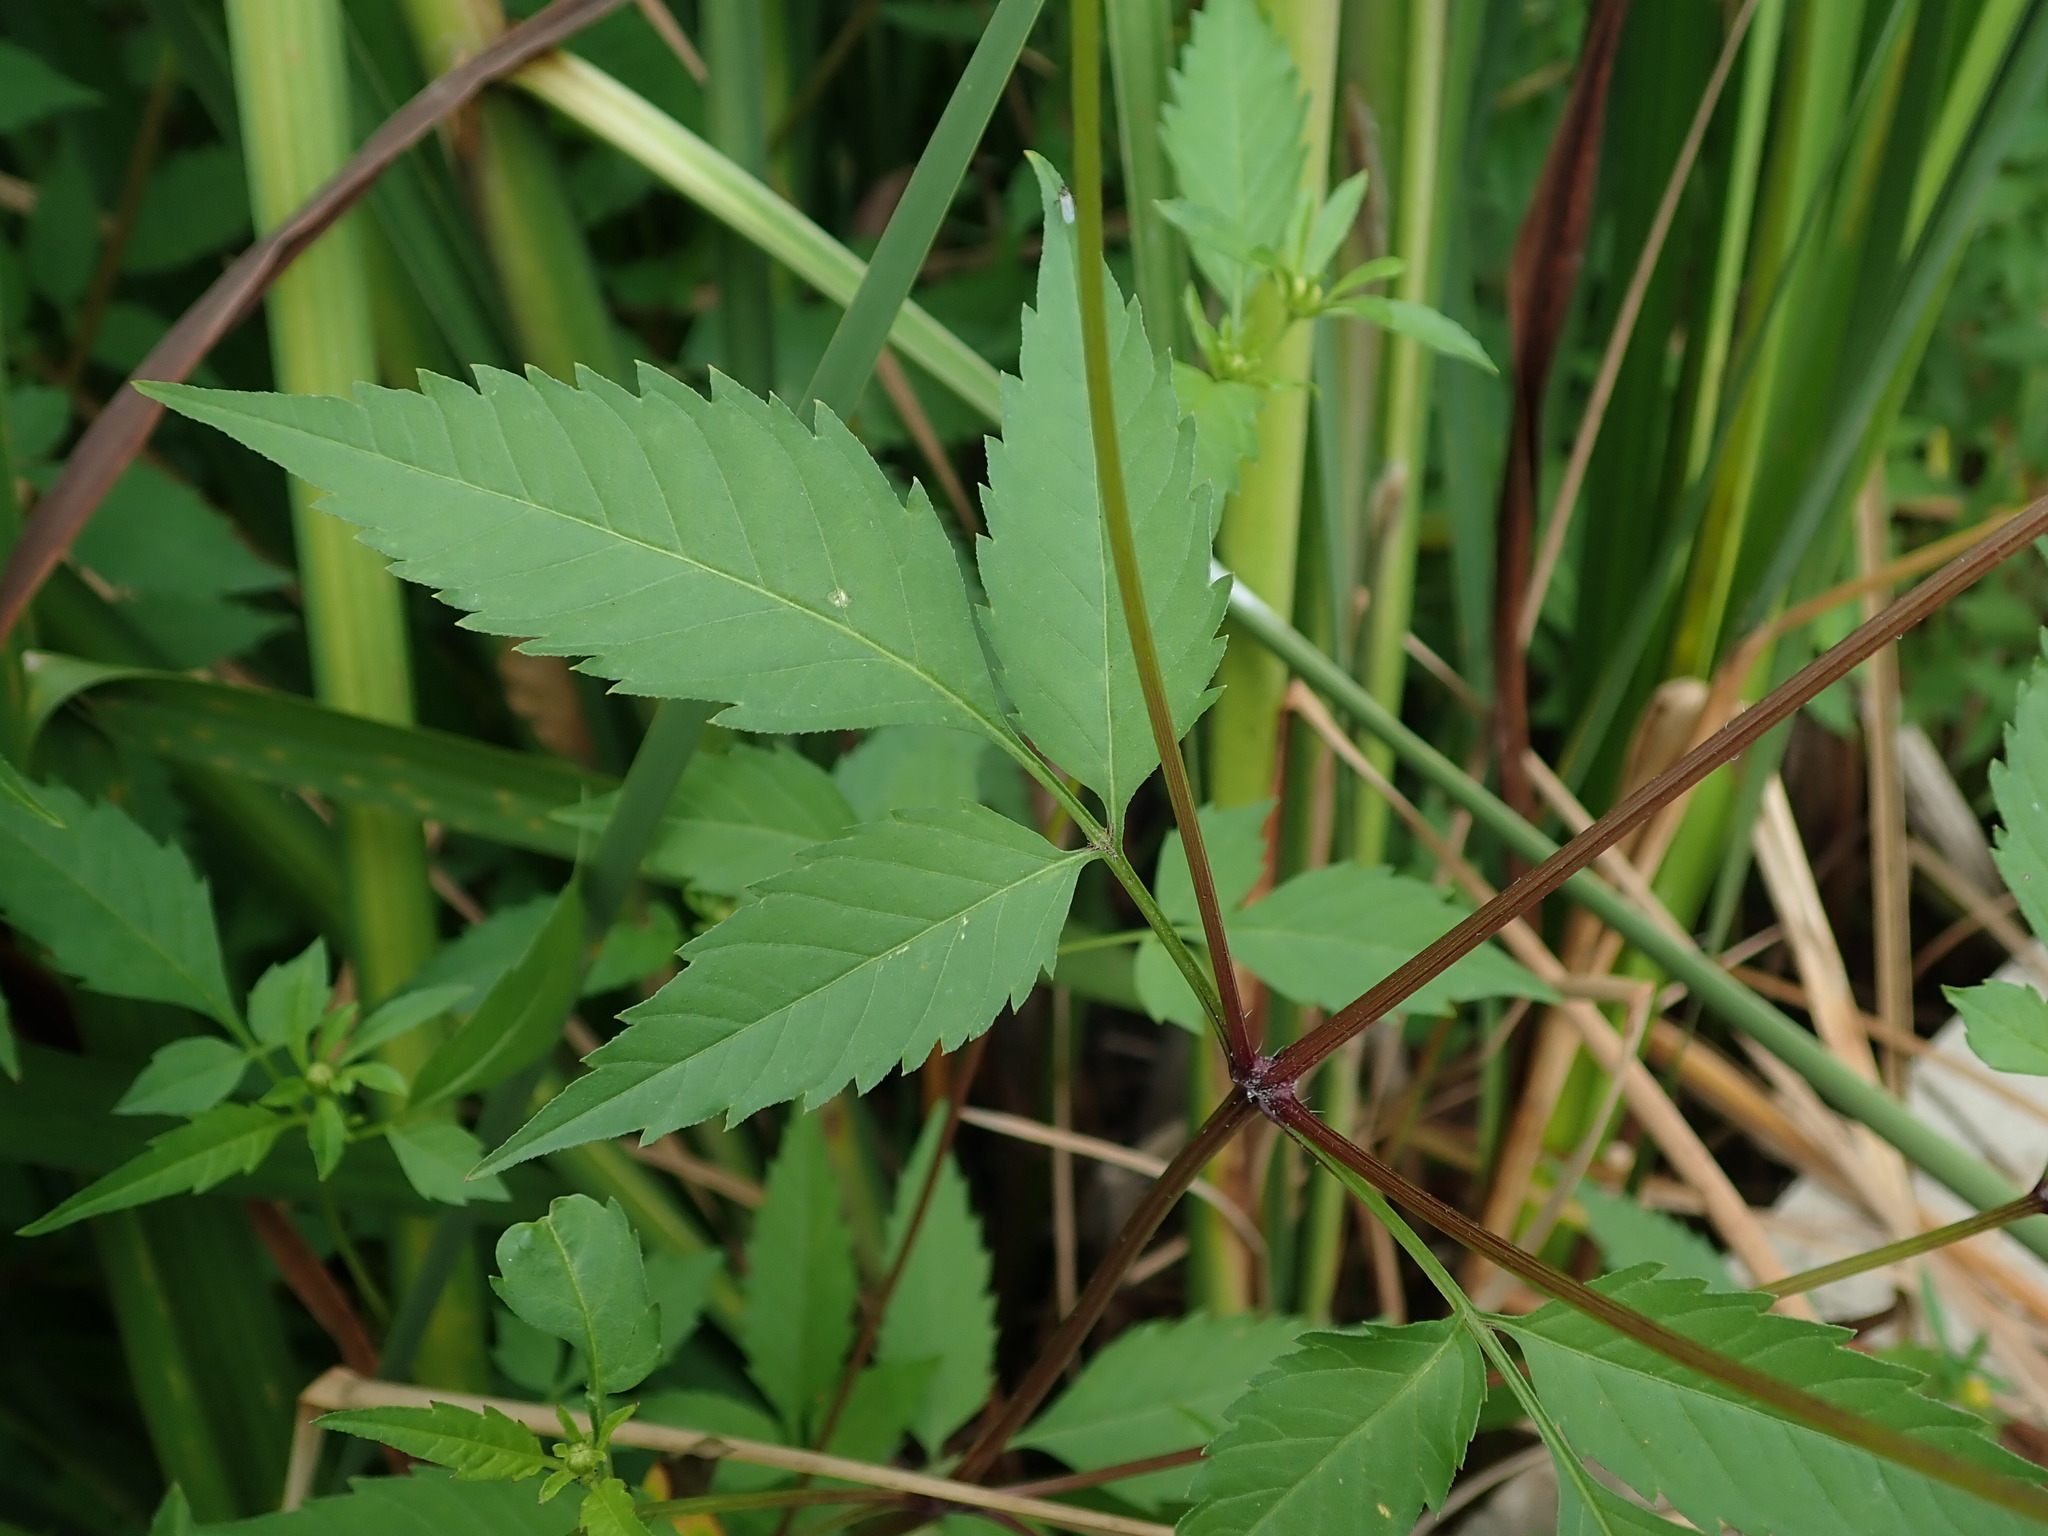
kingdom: Plantae
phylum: Tracheophyta
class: Magnoliopsida
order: Asterales
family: Asteraceae
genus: Bidens
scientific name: Bidens frondosa
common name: Beggarticks
